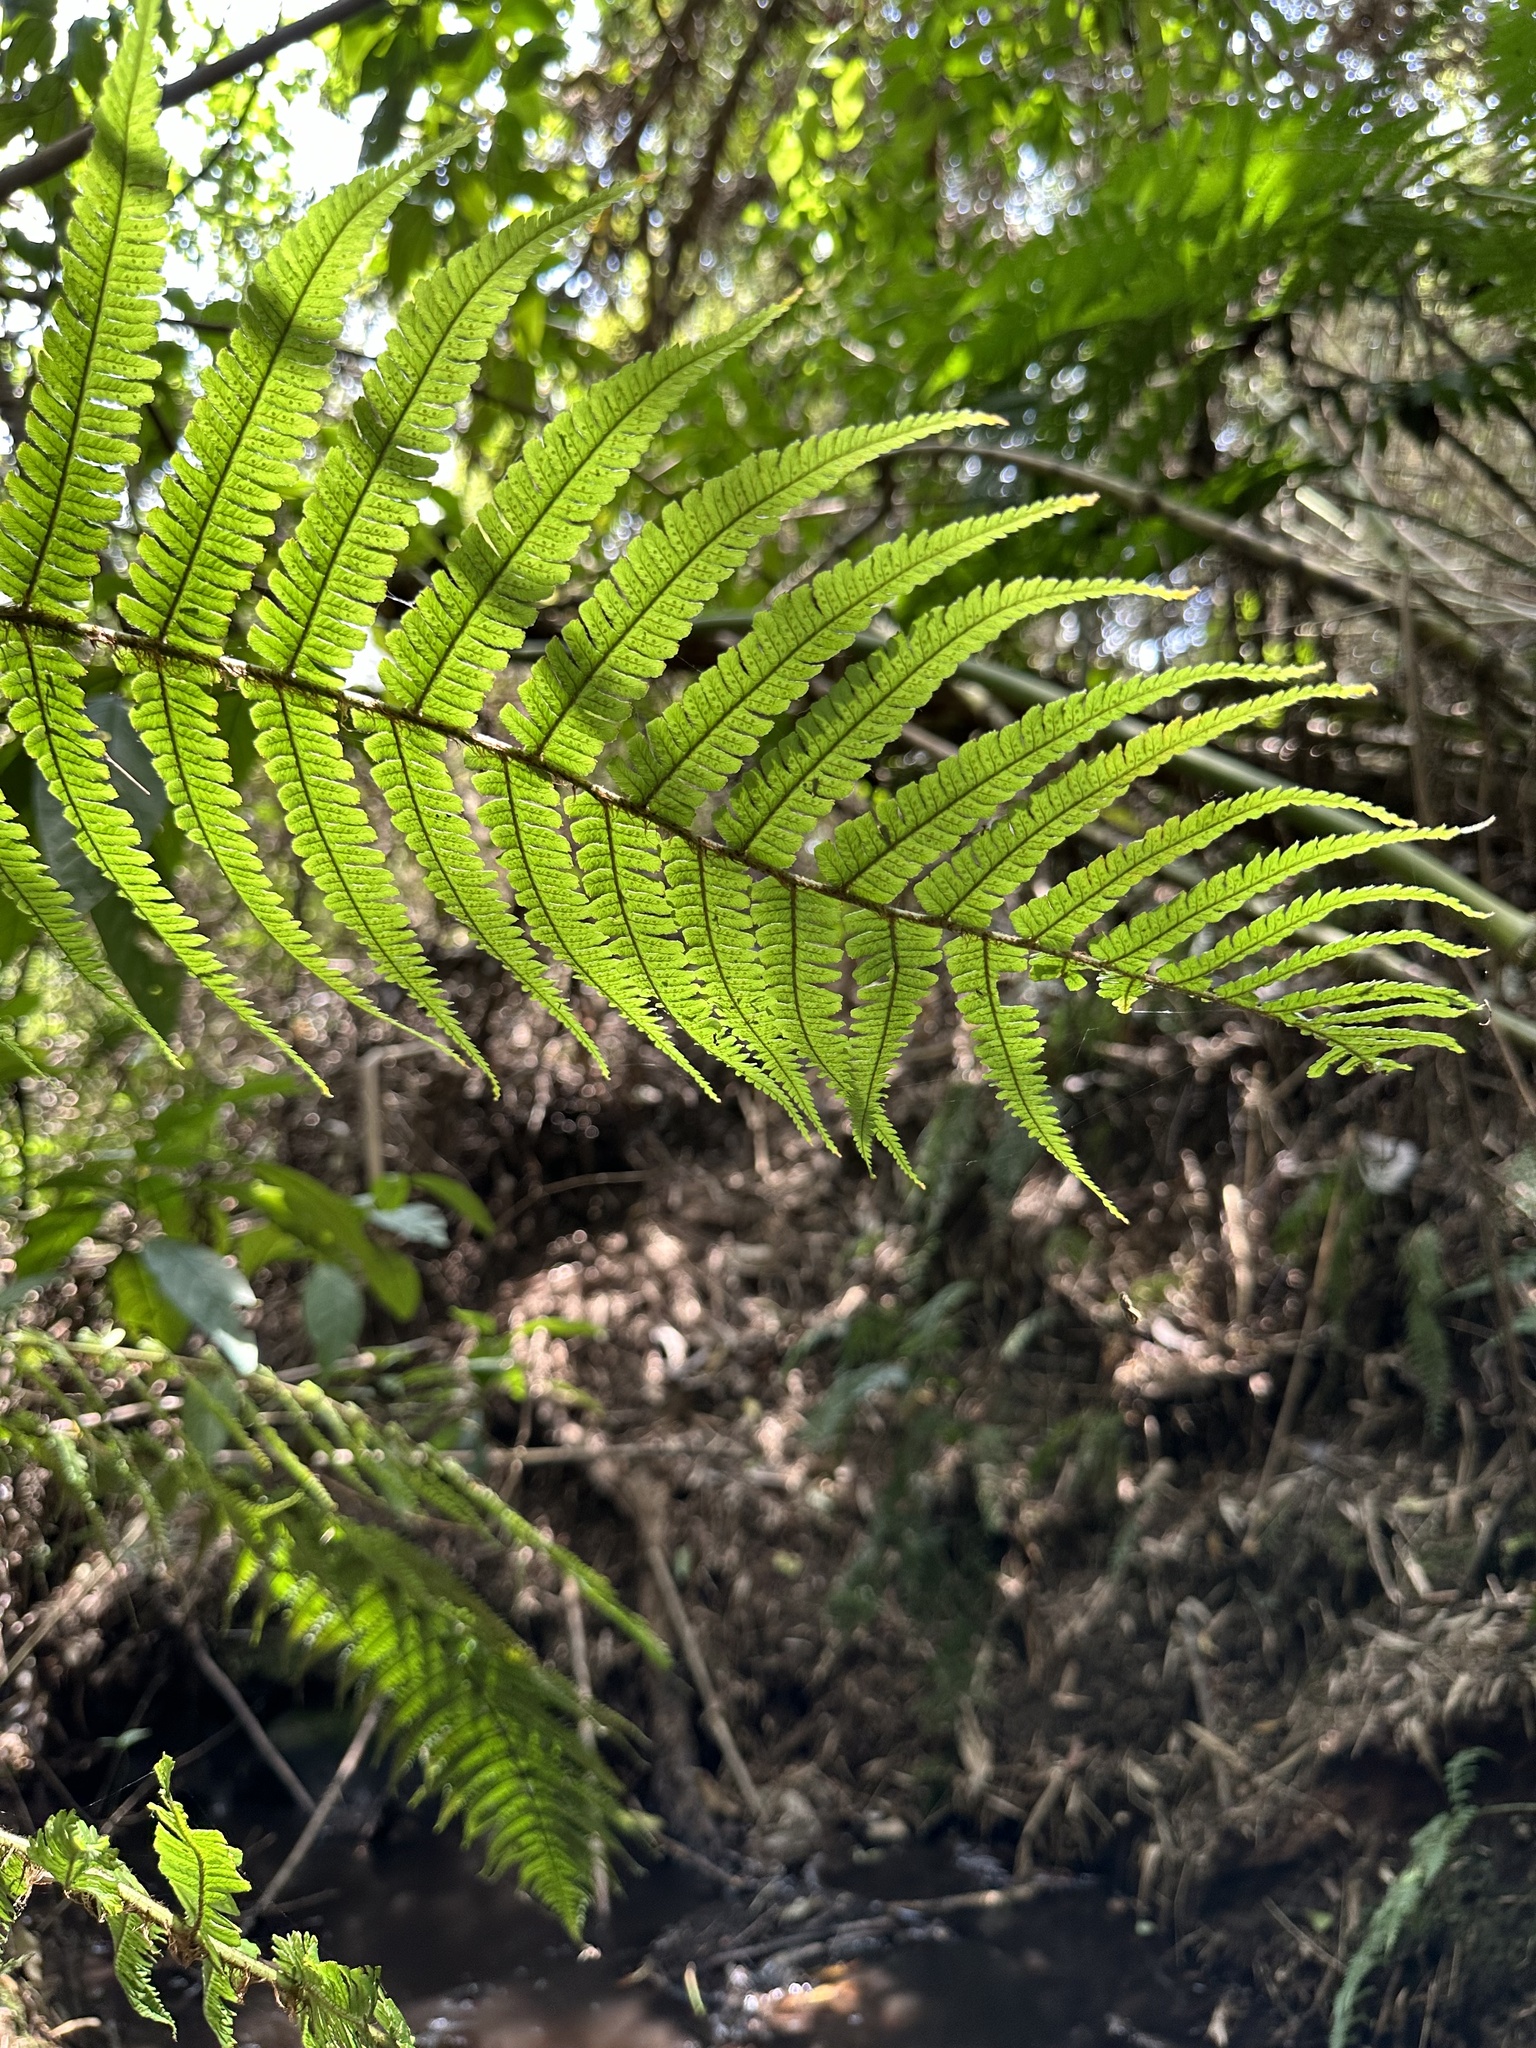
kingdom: Plantae
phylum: Tracheophyta
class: Polypodiopsida
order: Polypodiales
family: Dryopteridaceae
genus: Dryopteris
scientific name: Dryopteris wallichiana
